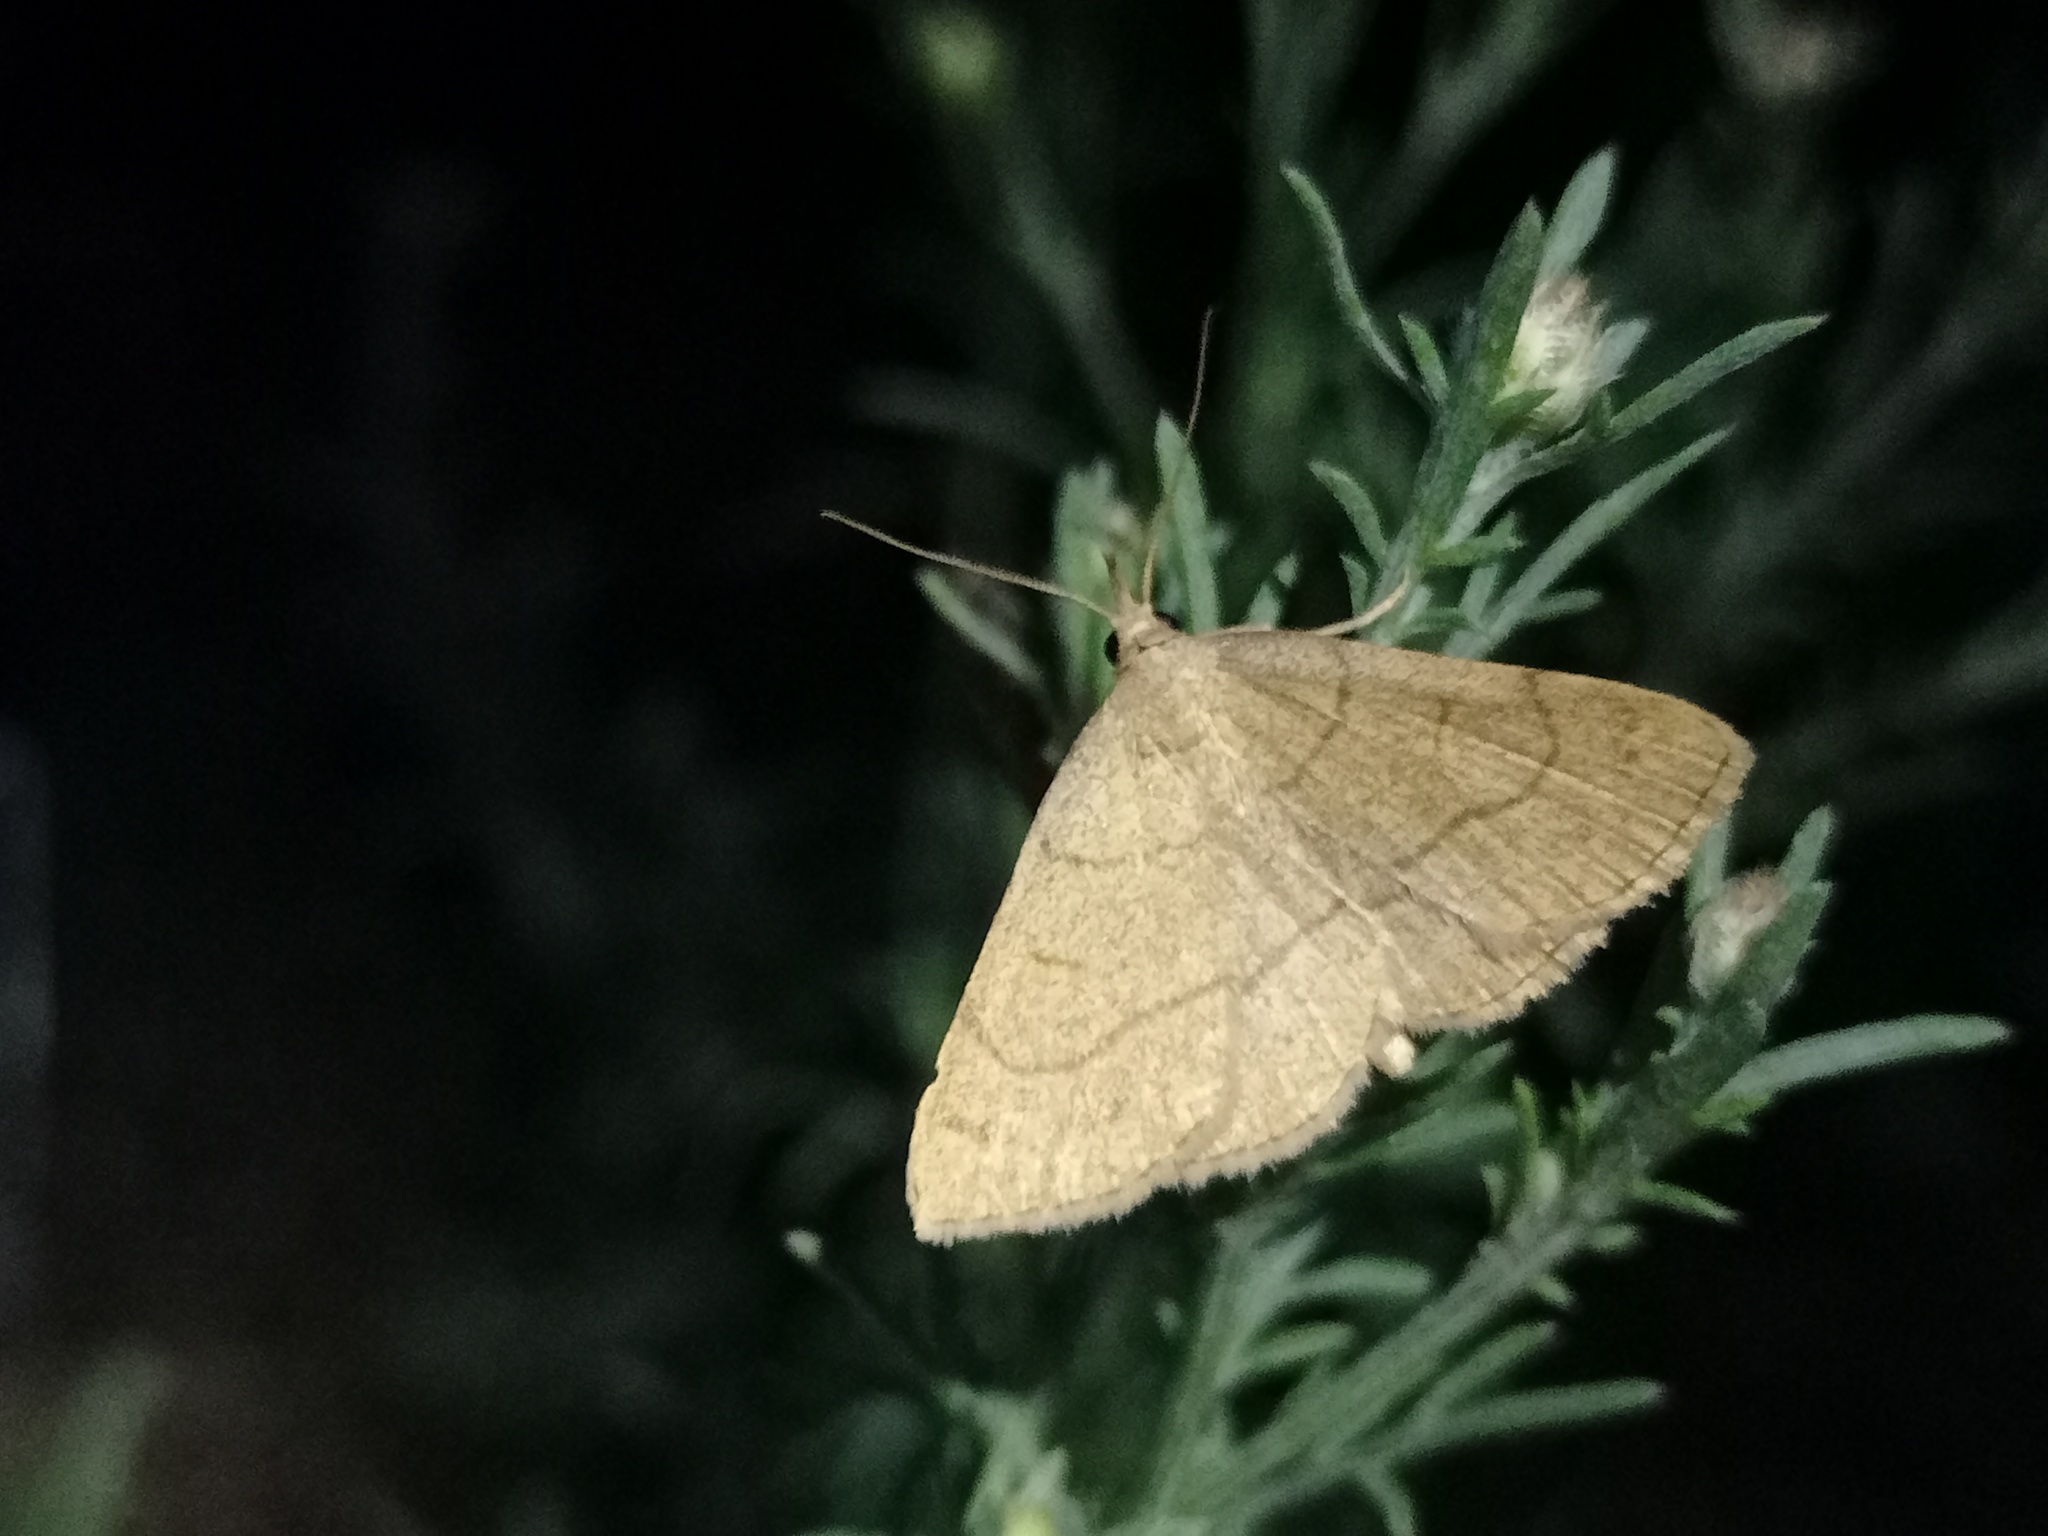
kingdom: Animalia
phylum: Arthropoda
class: Insecta
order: Lepidoptera
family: Erebidae
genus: Paracolax
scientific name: Paracolax tristalis
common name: Clay fan-foot
